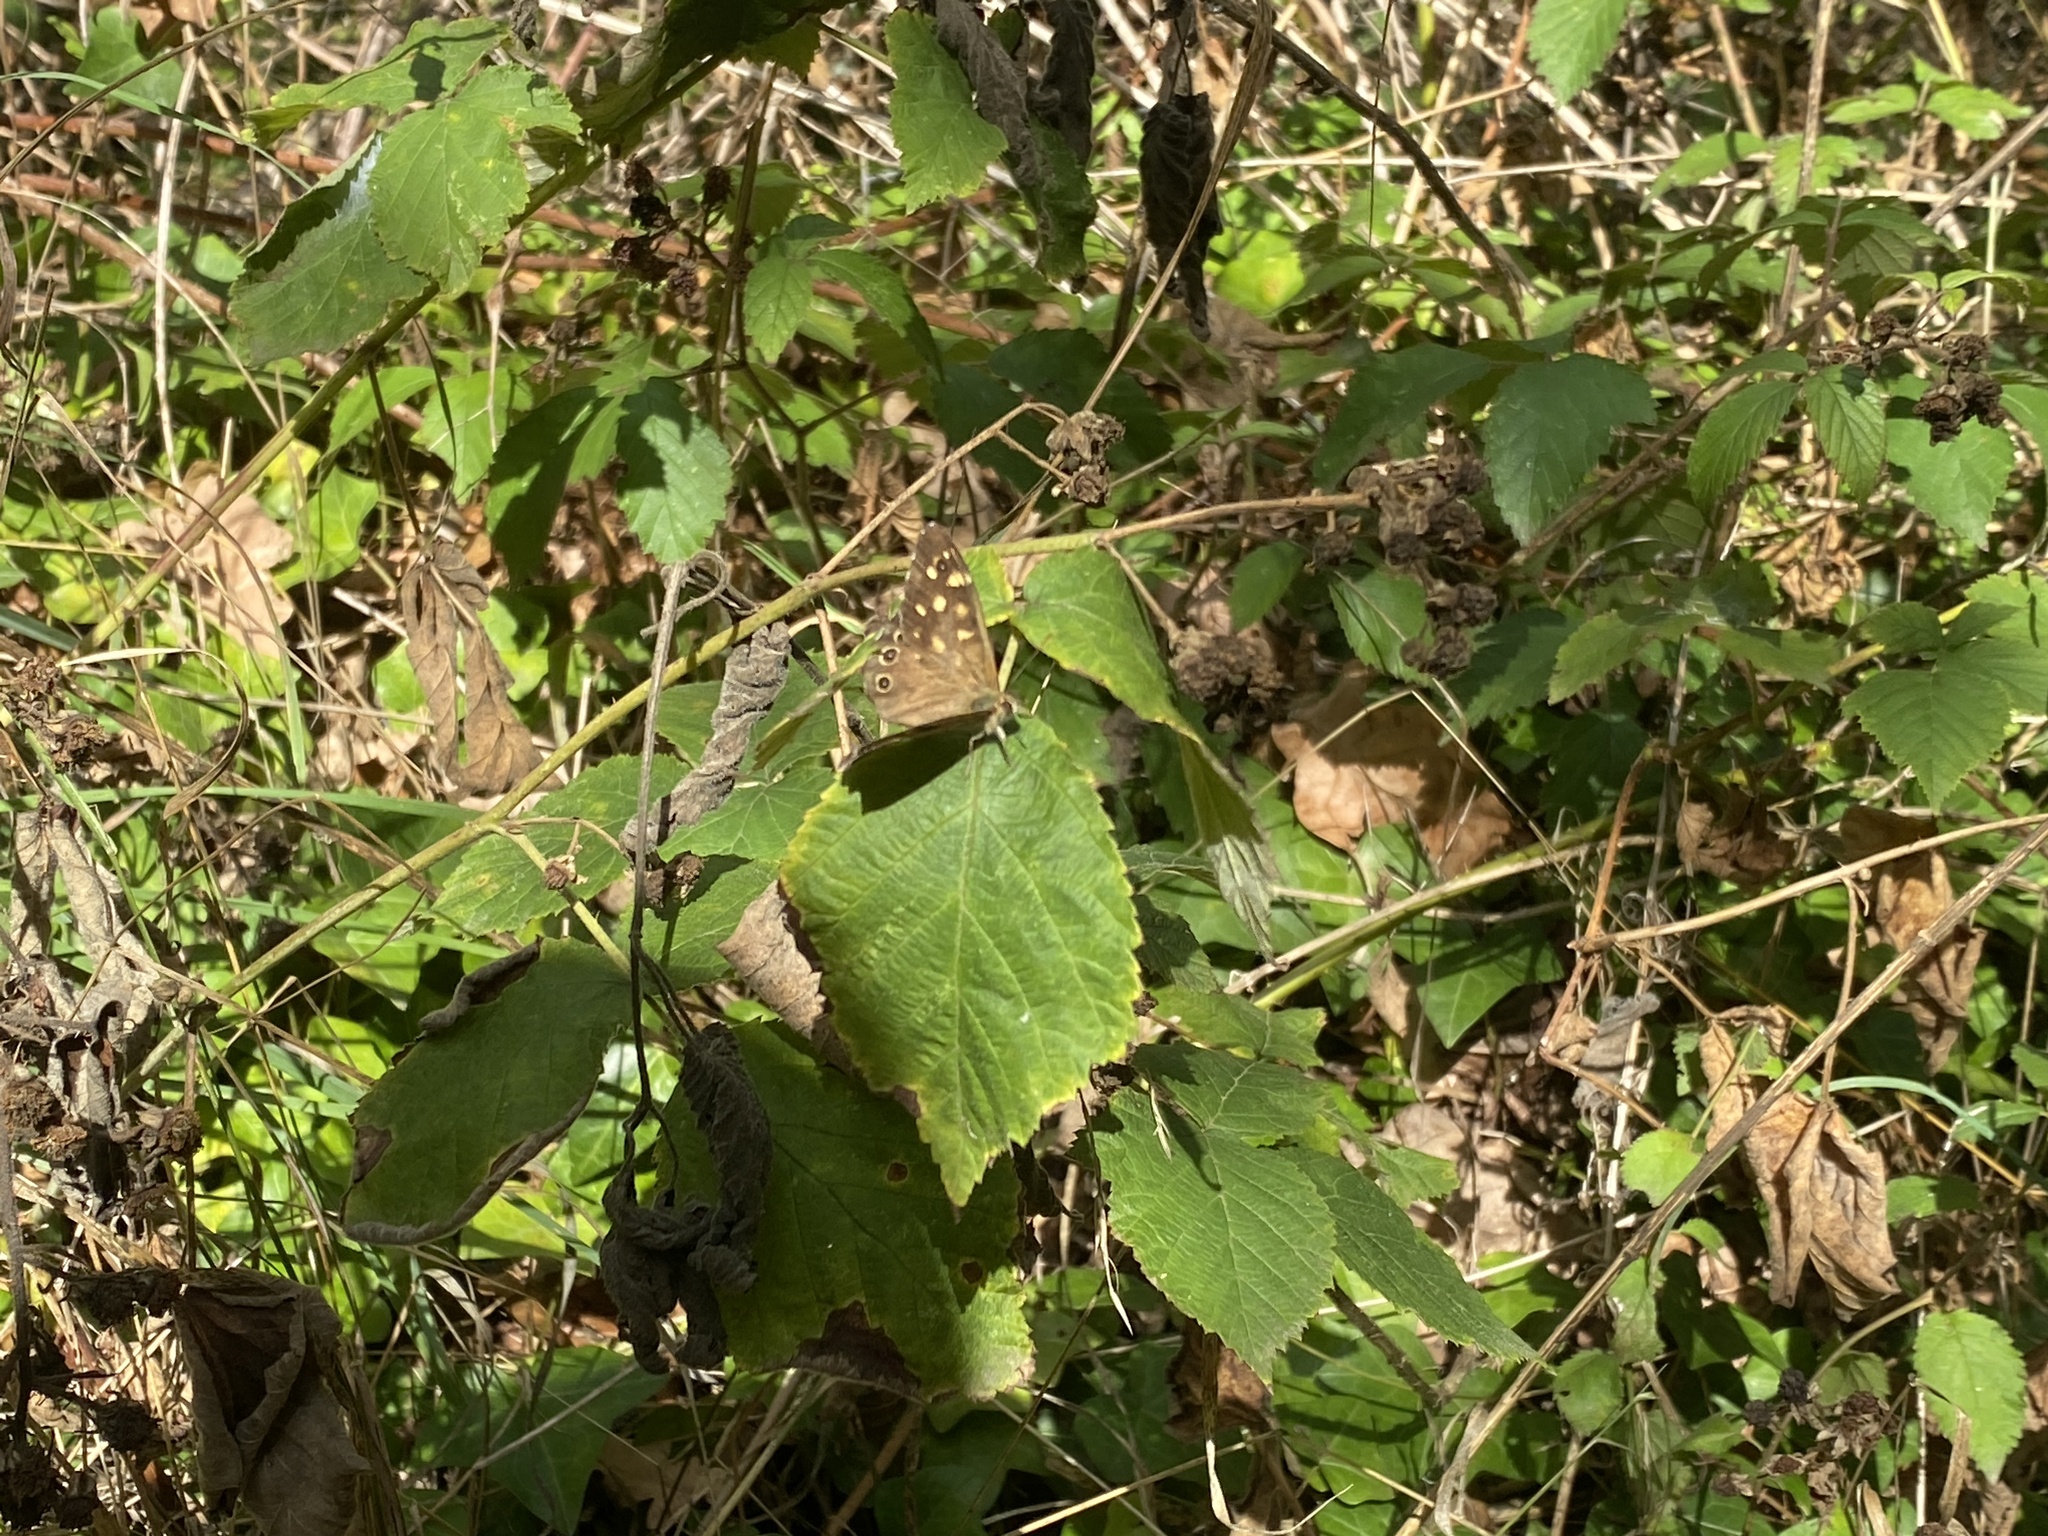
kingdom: Animalia
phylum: Arthropoda
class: Insecta
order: Lepidoptera
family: Nymphalidae
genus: Pararge
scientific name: Pararge aegeria
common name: Speckled wood
